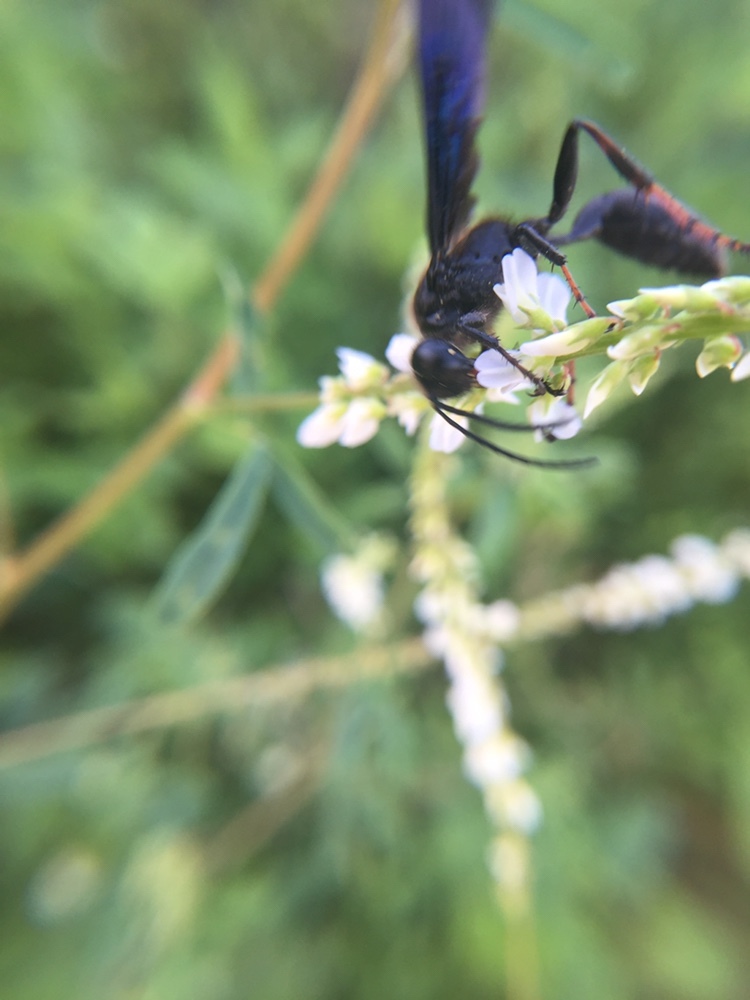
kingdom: Plantae
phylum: Tracheophyta
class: Magnoliopsida
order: Fabales
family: Fabaceae
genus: Melilotus
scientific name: Melilotus albus
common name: White melilot
